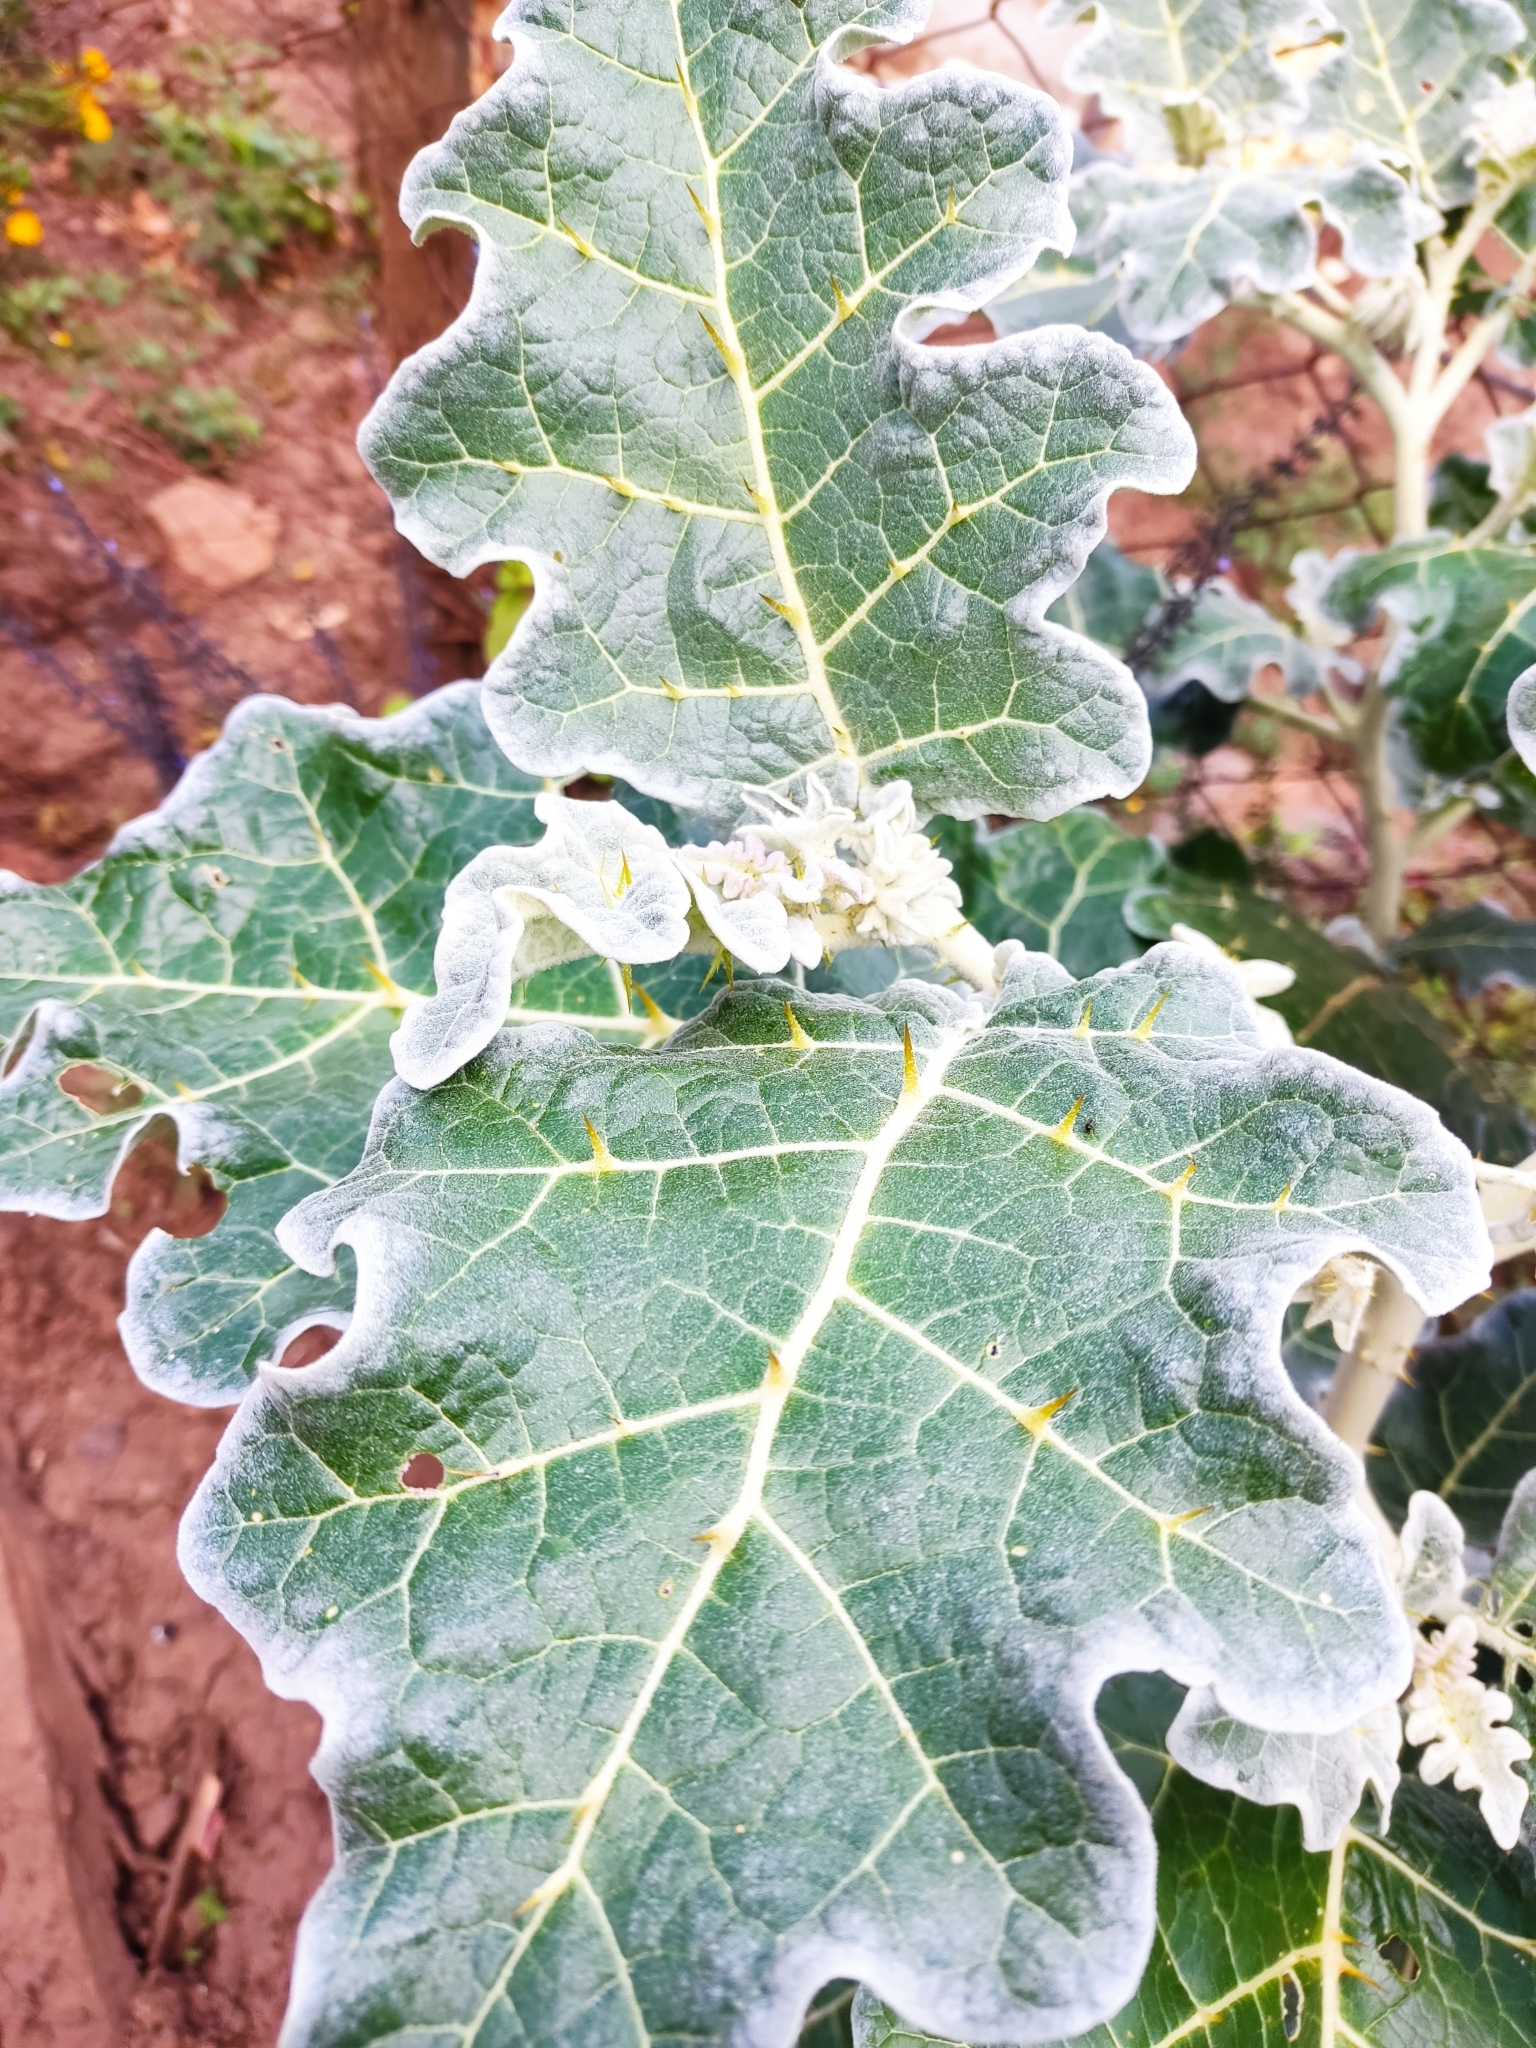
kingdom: Plantae
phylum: Tracheophyta
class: Magnoliopsida
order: Solanales
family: Solanaceae
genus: Solanum
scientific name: Solanum marginatum
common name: Purple african nightshade
